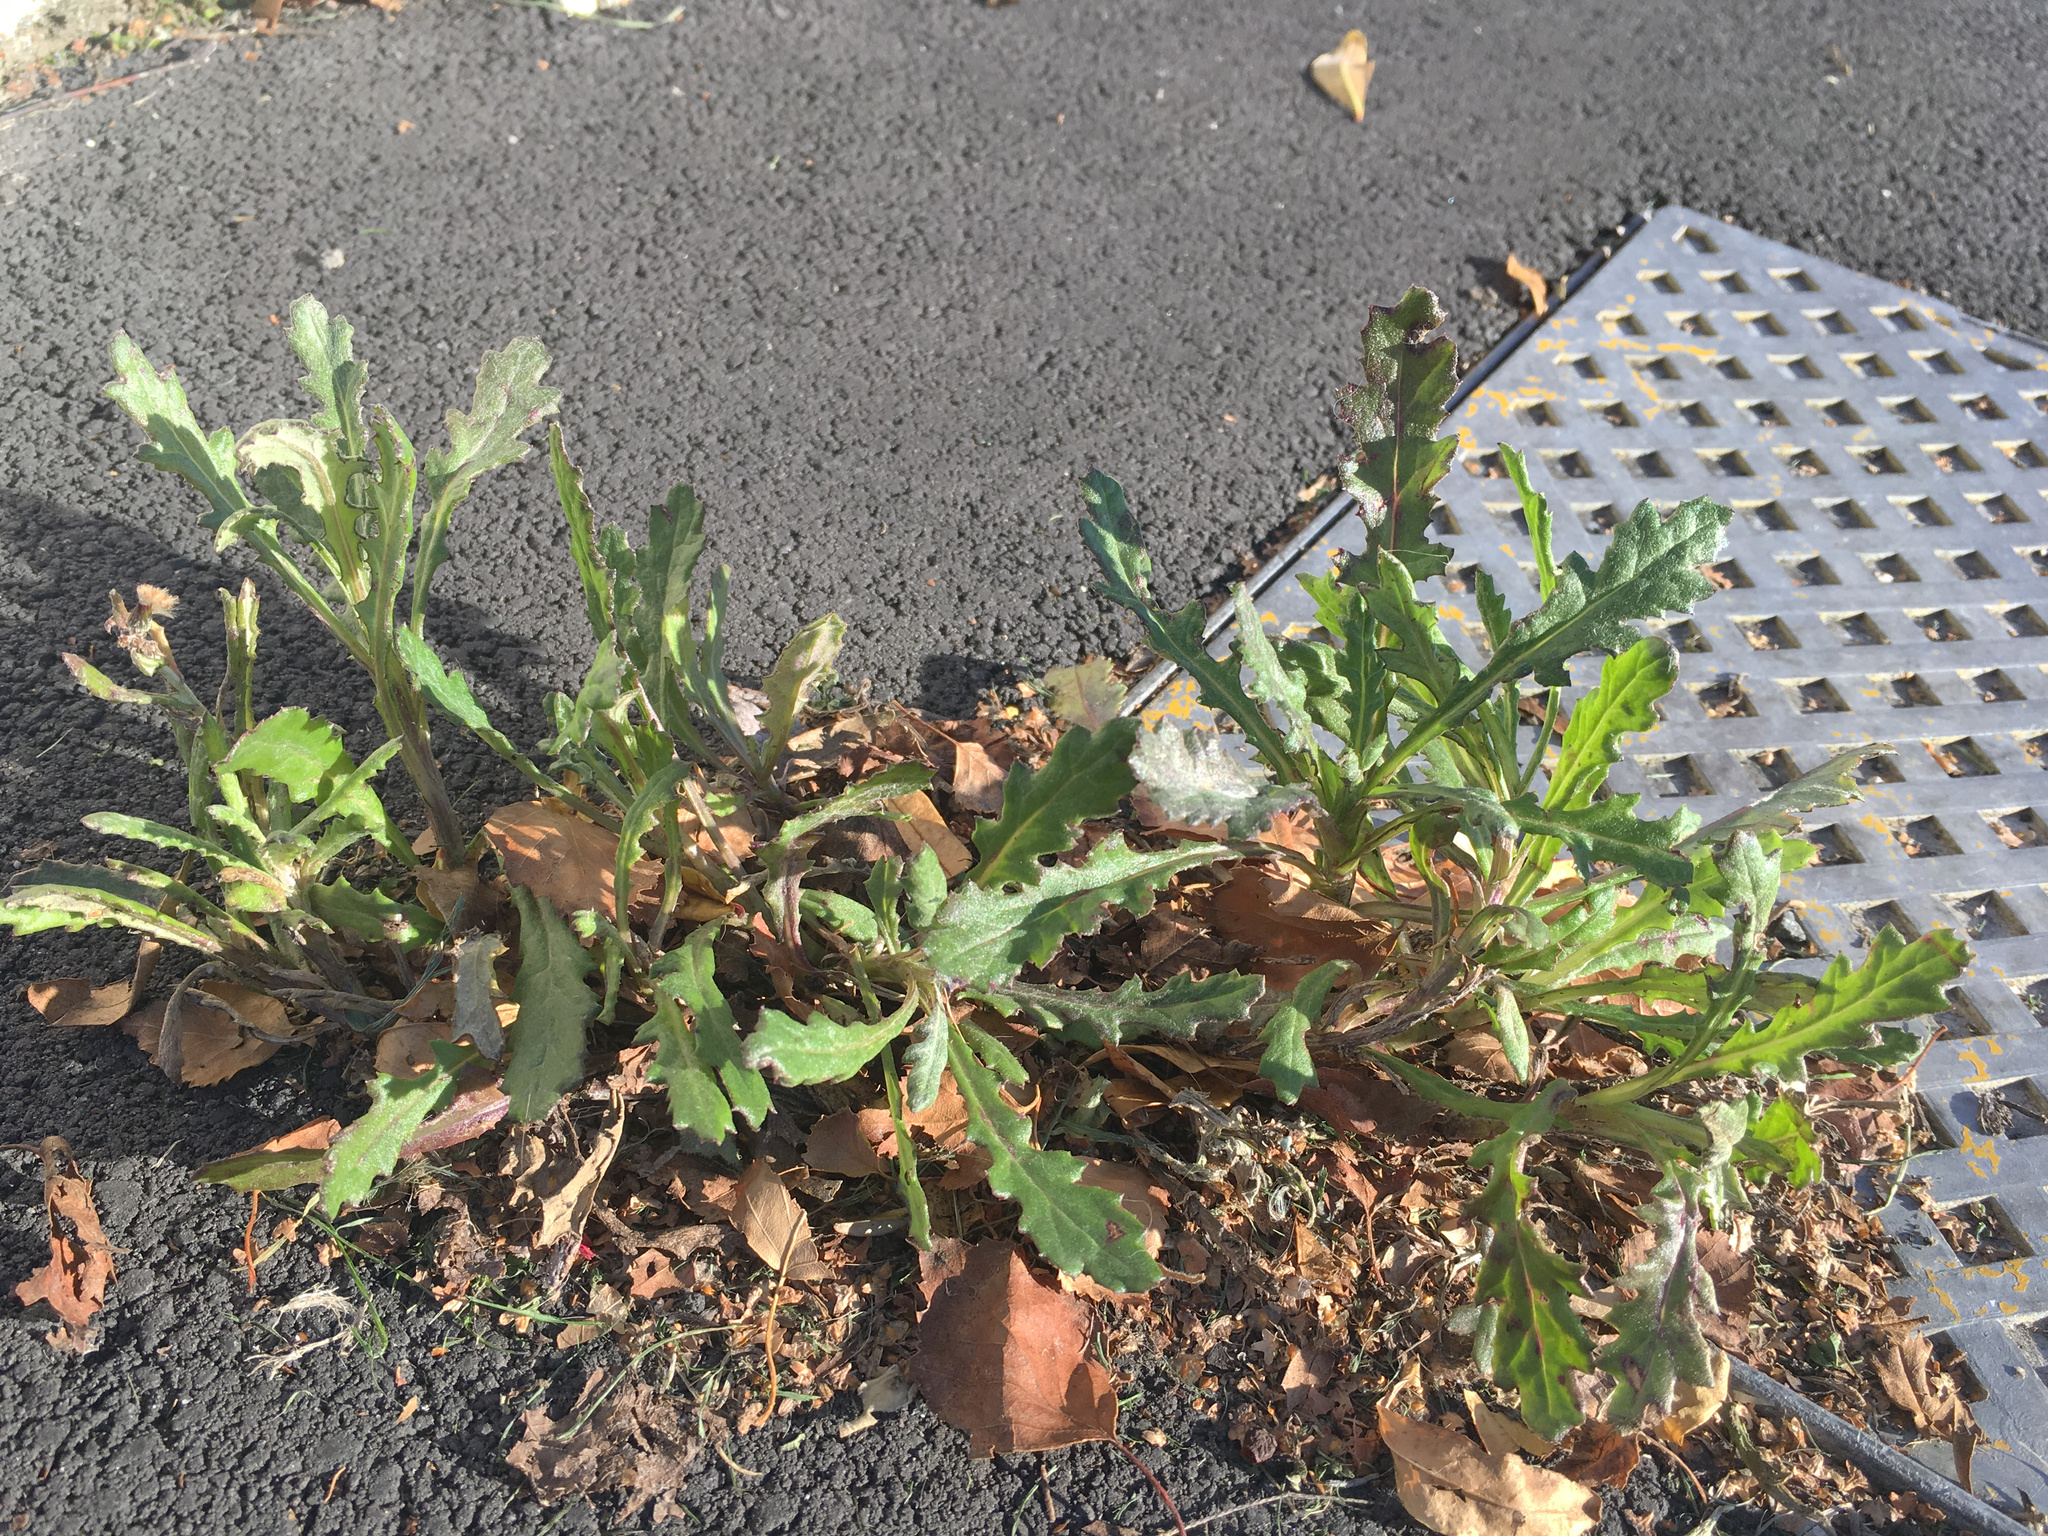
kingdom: Plantae
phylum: Tracheophyta
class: Magnoliopsida
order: Asterales
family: Asteraceae
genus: Senecio
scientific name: Senecio glomeratus
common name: Cutleaf burnweed
